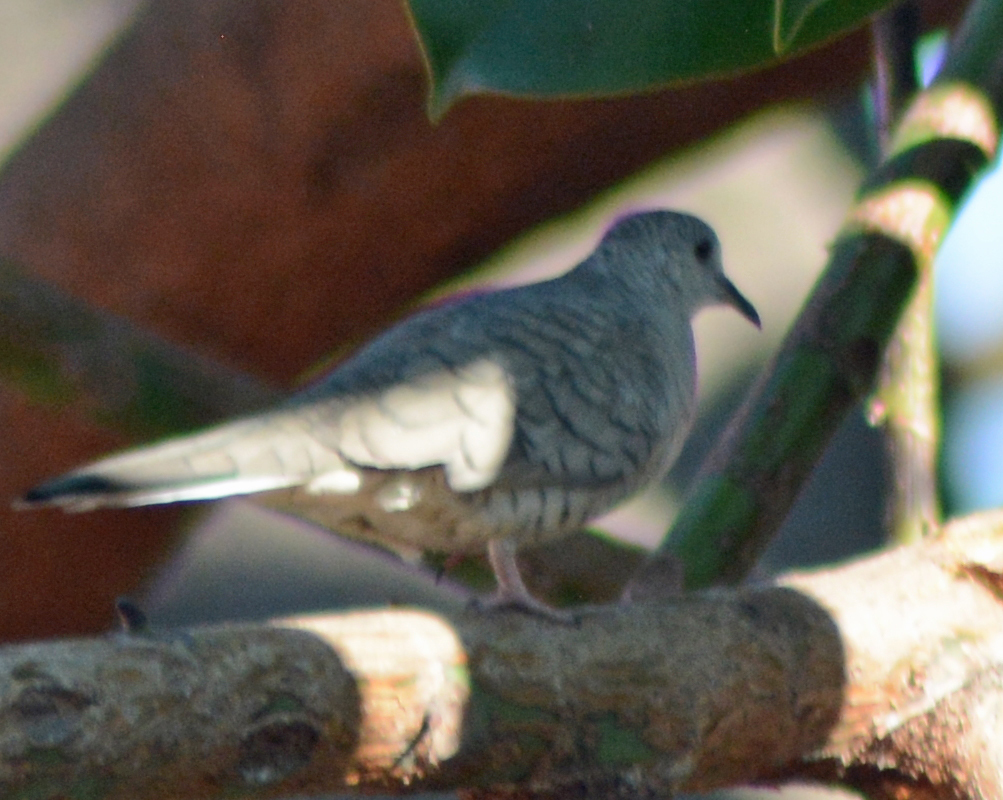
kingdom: Animalia
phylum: Chordata
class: Aves
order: Columbiformes
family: Columbidae
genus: Columbina
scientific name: Columbina inca
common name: Inca dove
